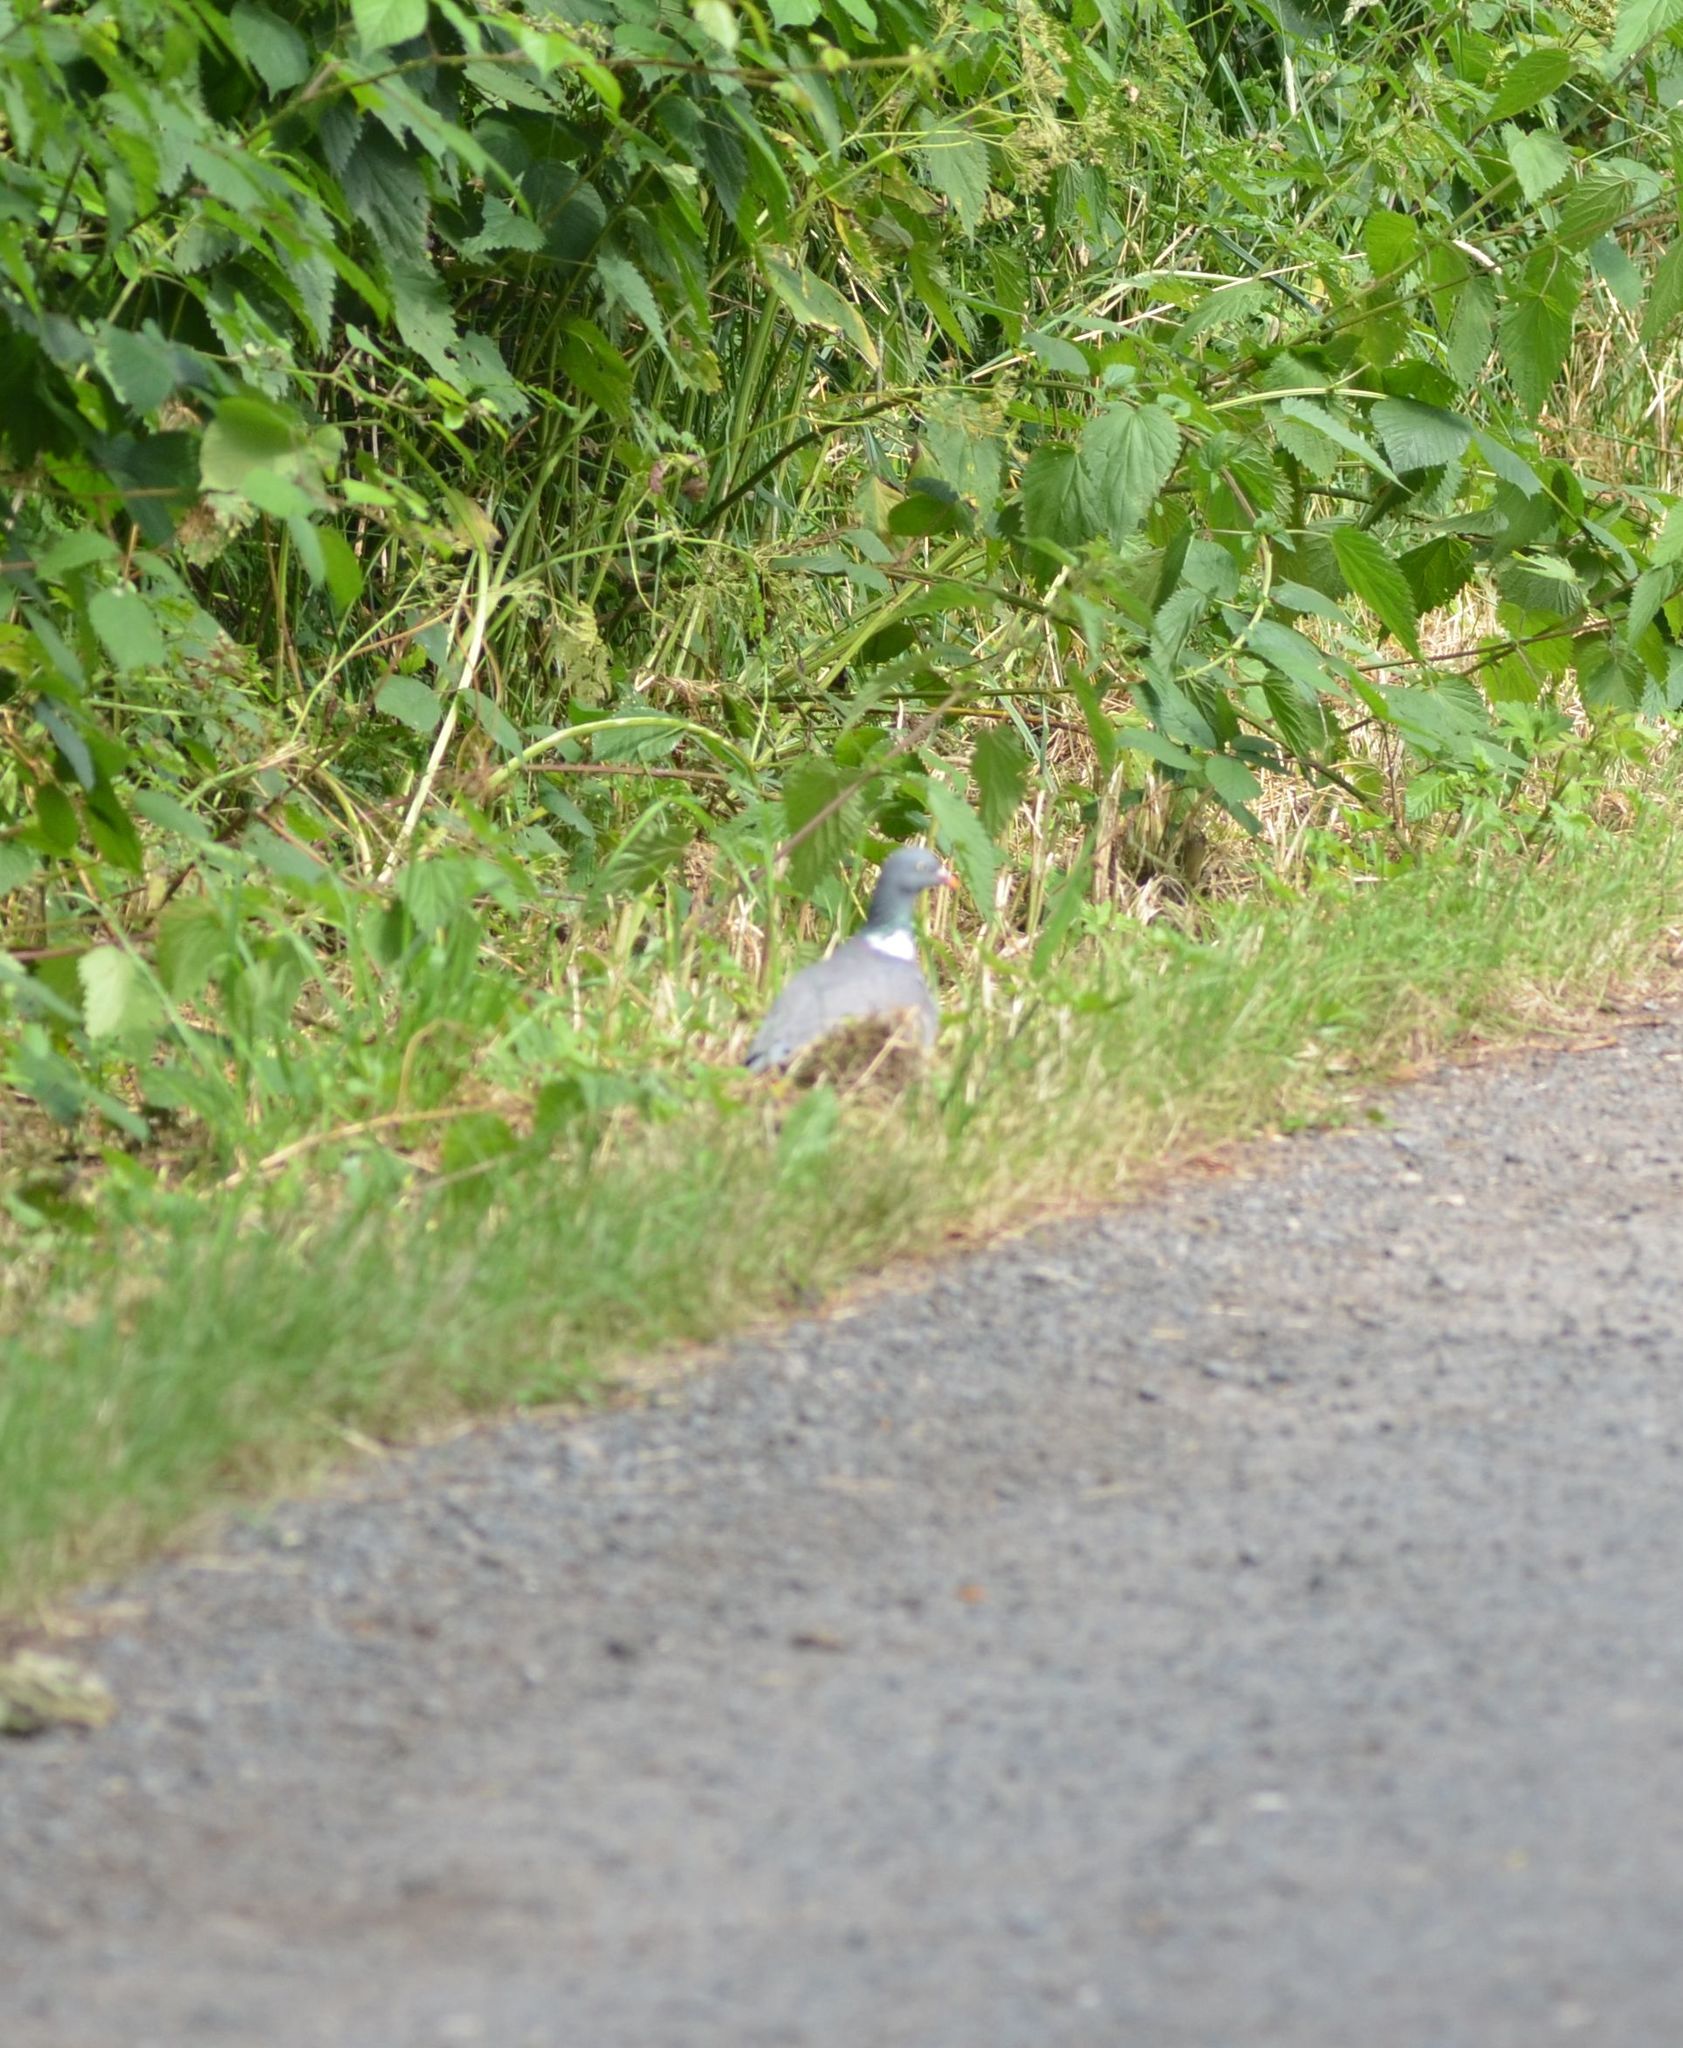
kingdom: Animalia
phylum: Chordata
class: Aves
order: Columbiformes
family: Columbidae
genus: Columba
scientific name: Columba palumbus
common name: Common wood pigeon
